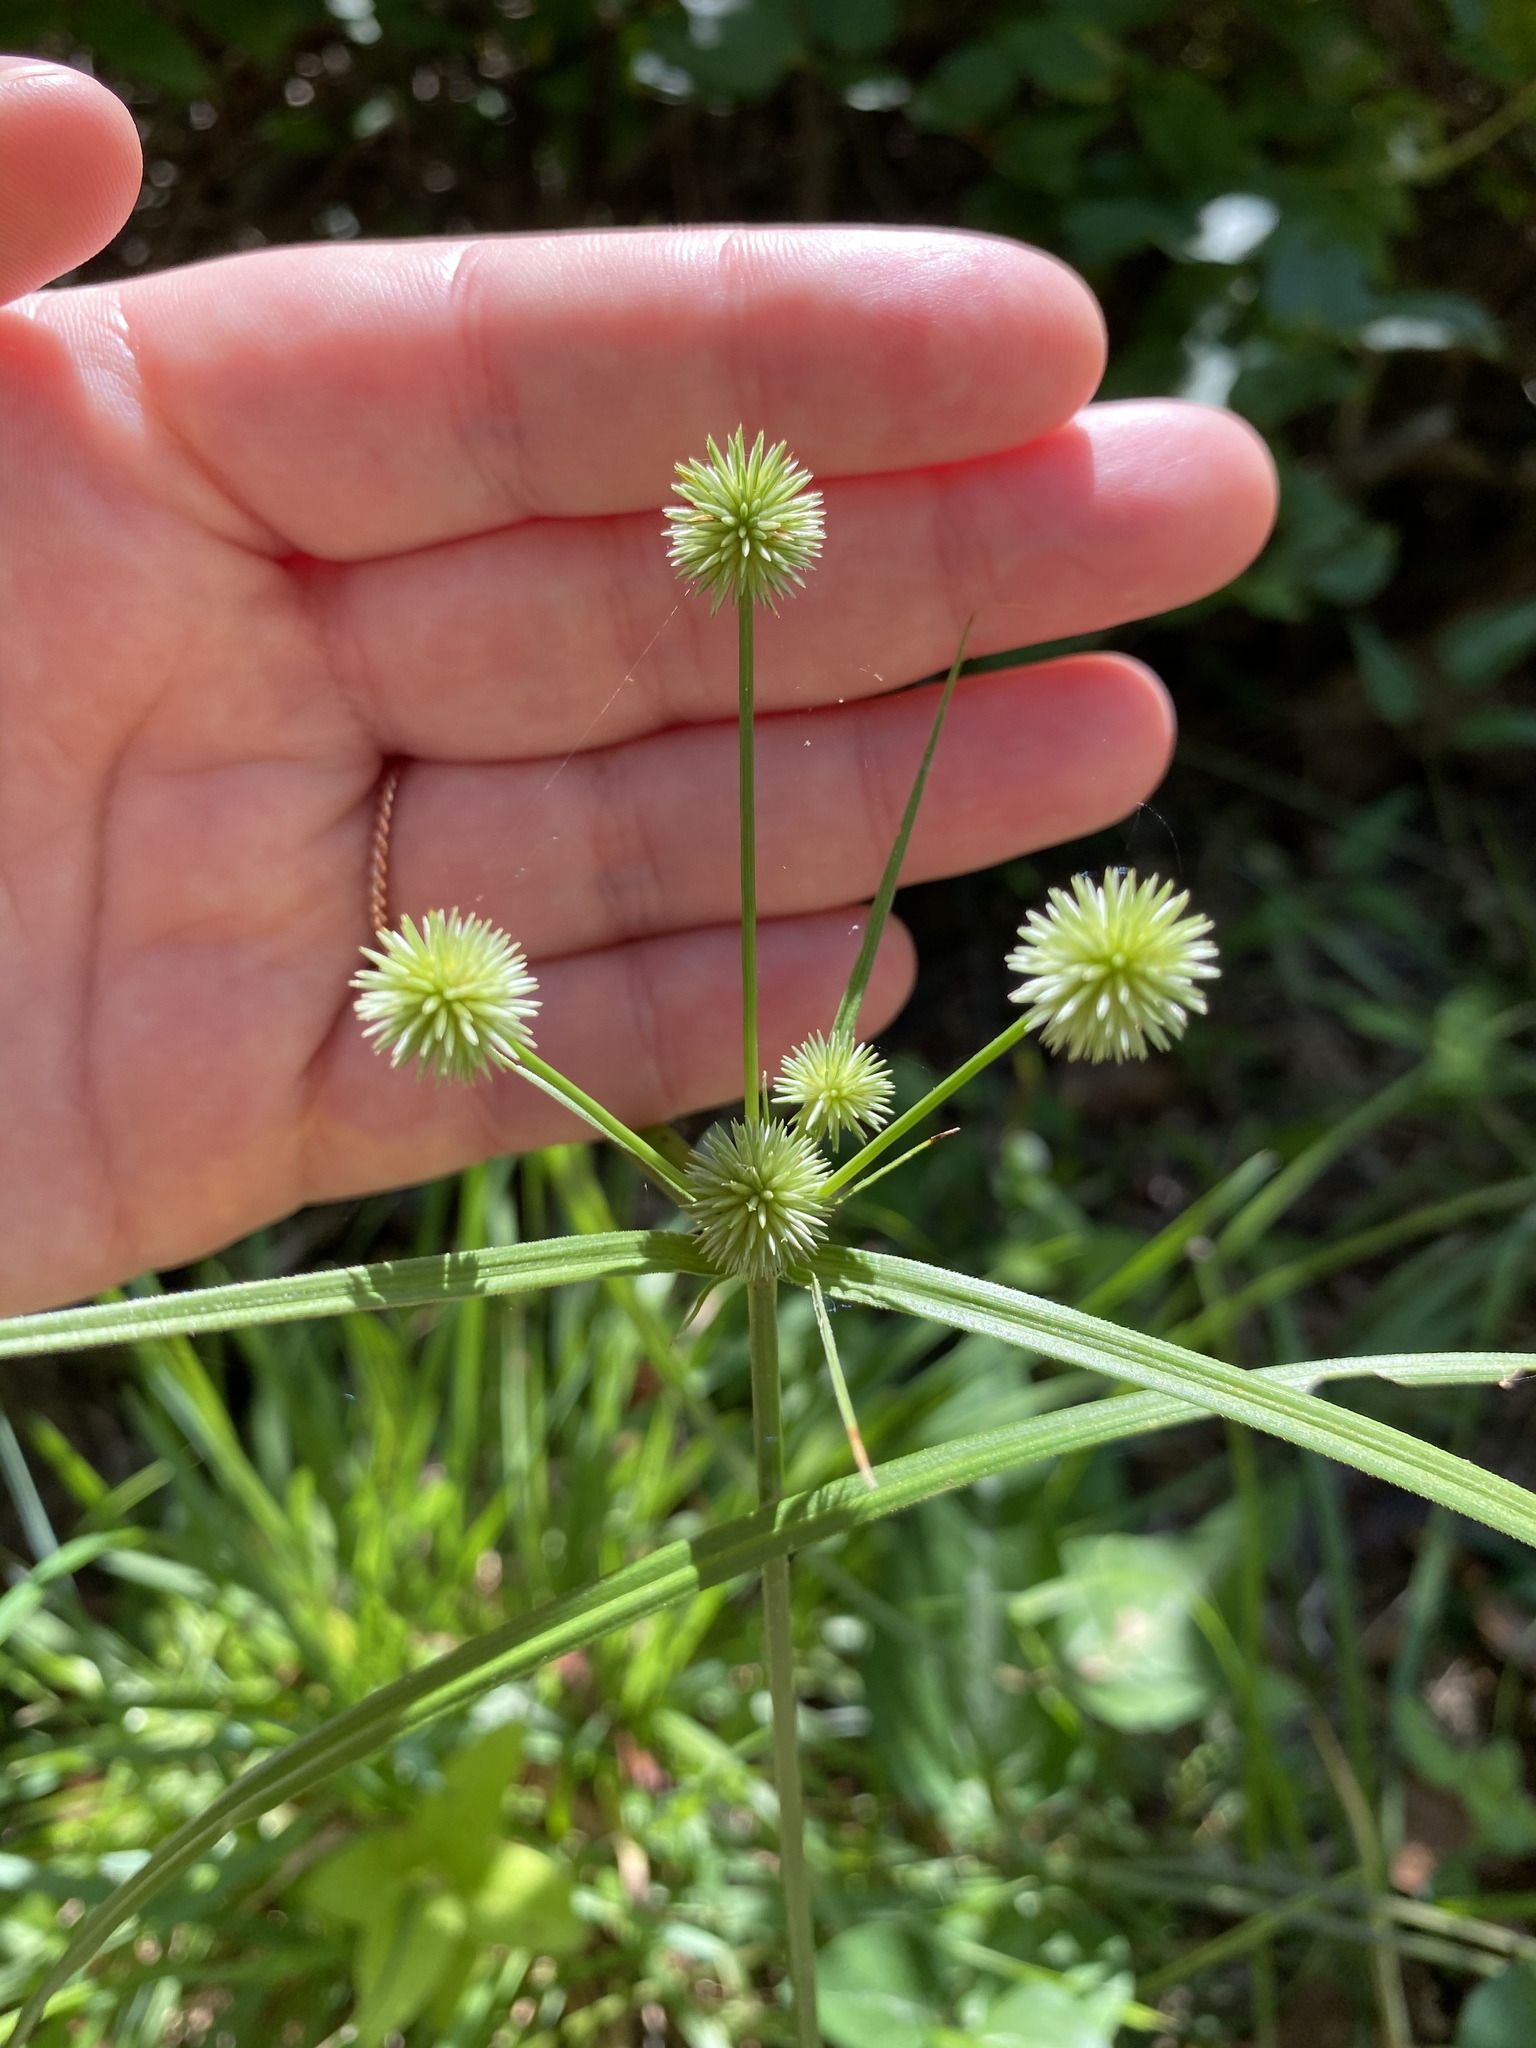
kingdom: Plantae
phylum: Tracheophyta
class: Liliopsida
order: Poales
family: Cyperaceae
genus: Cyperus
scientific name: Cyperus echinatus
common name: Teasel sedge
